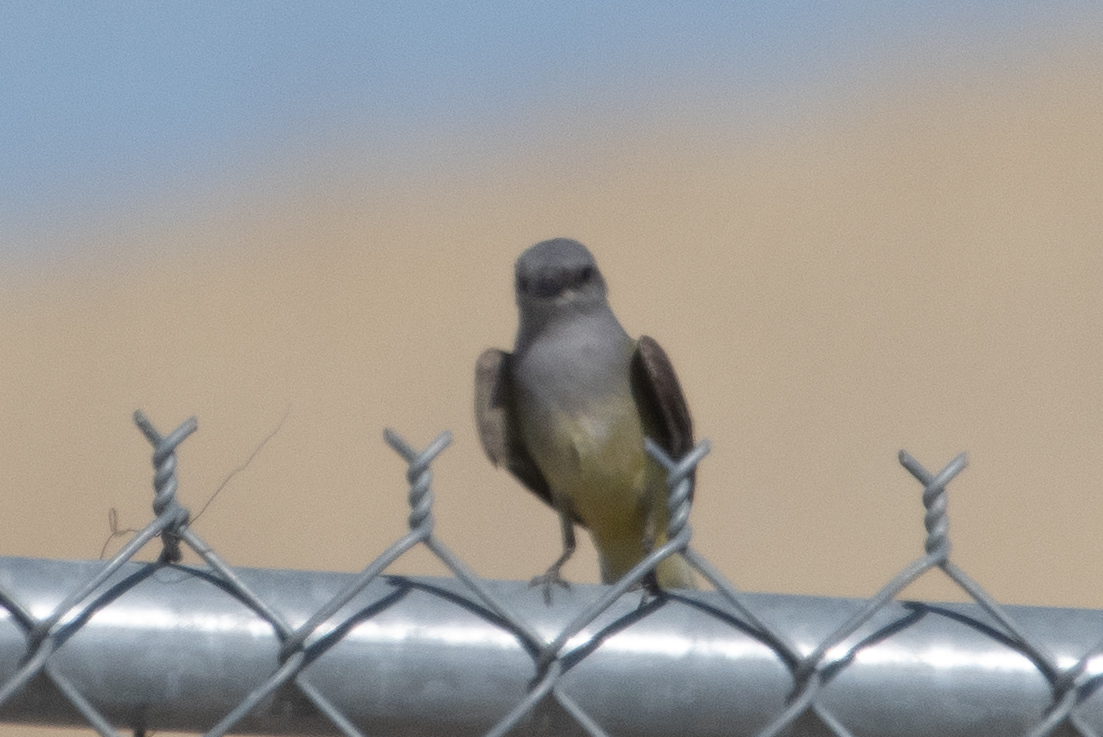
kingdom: Animalia
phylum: Chordata
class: Aves
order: Passeriformes
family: Tyrannidae
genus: Tyrannus
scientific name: Tyrannus verticalis
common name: Western kingbird
